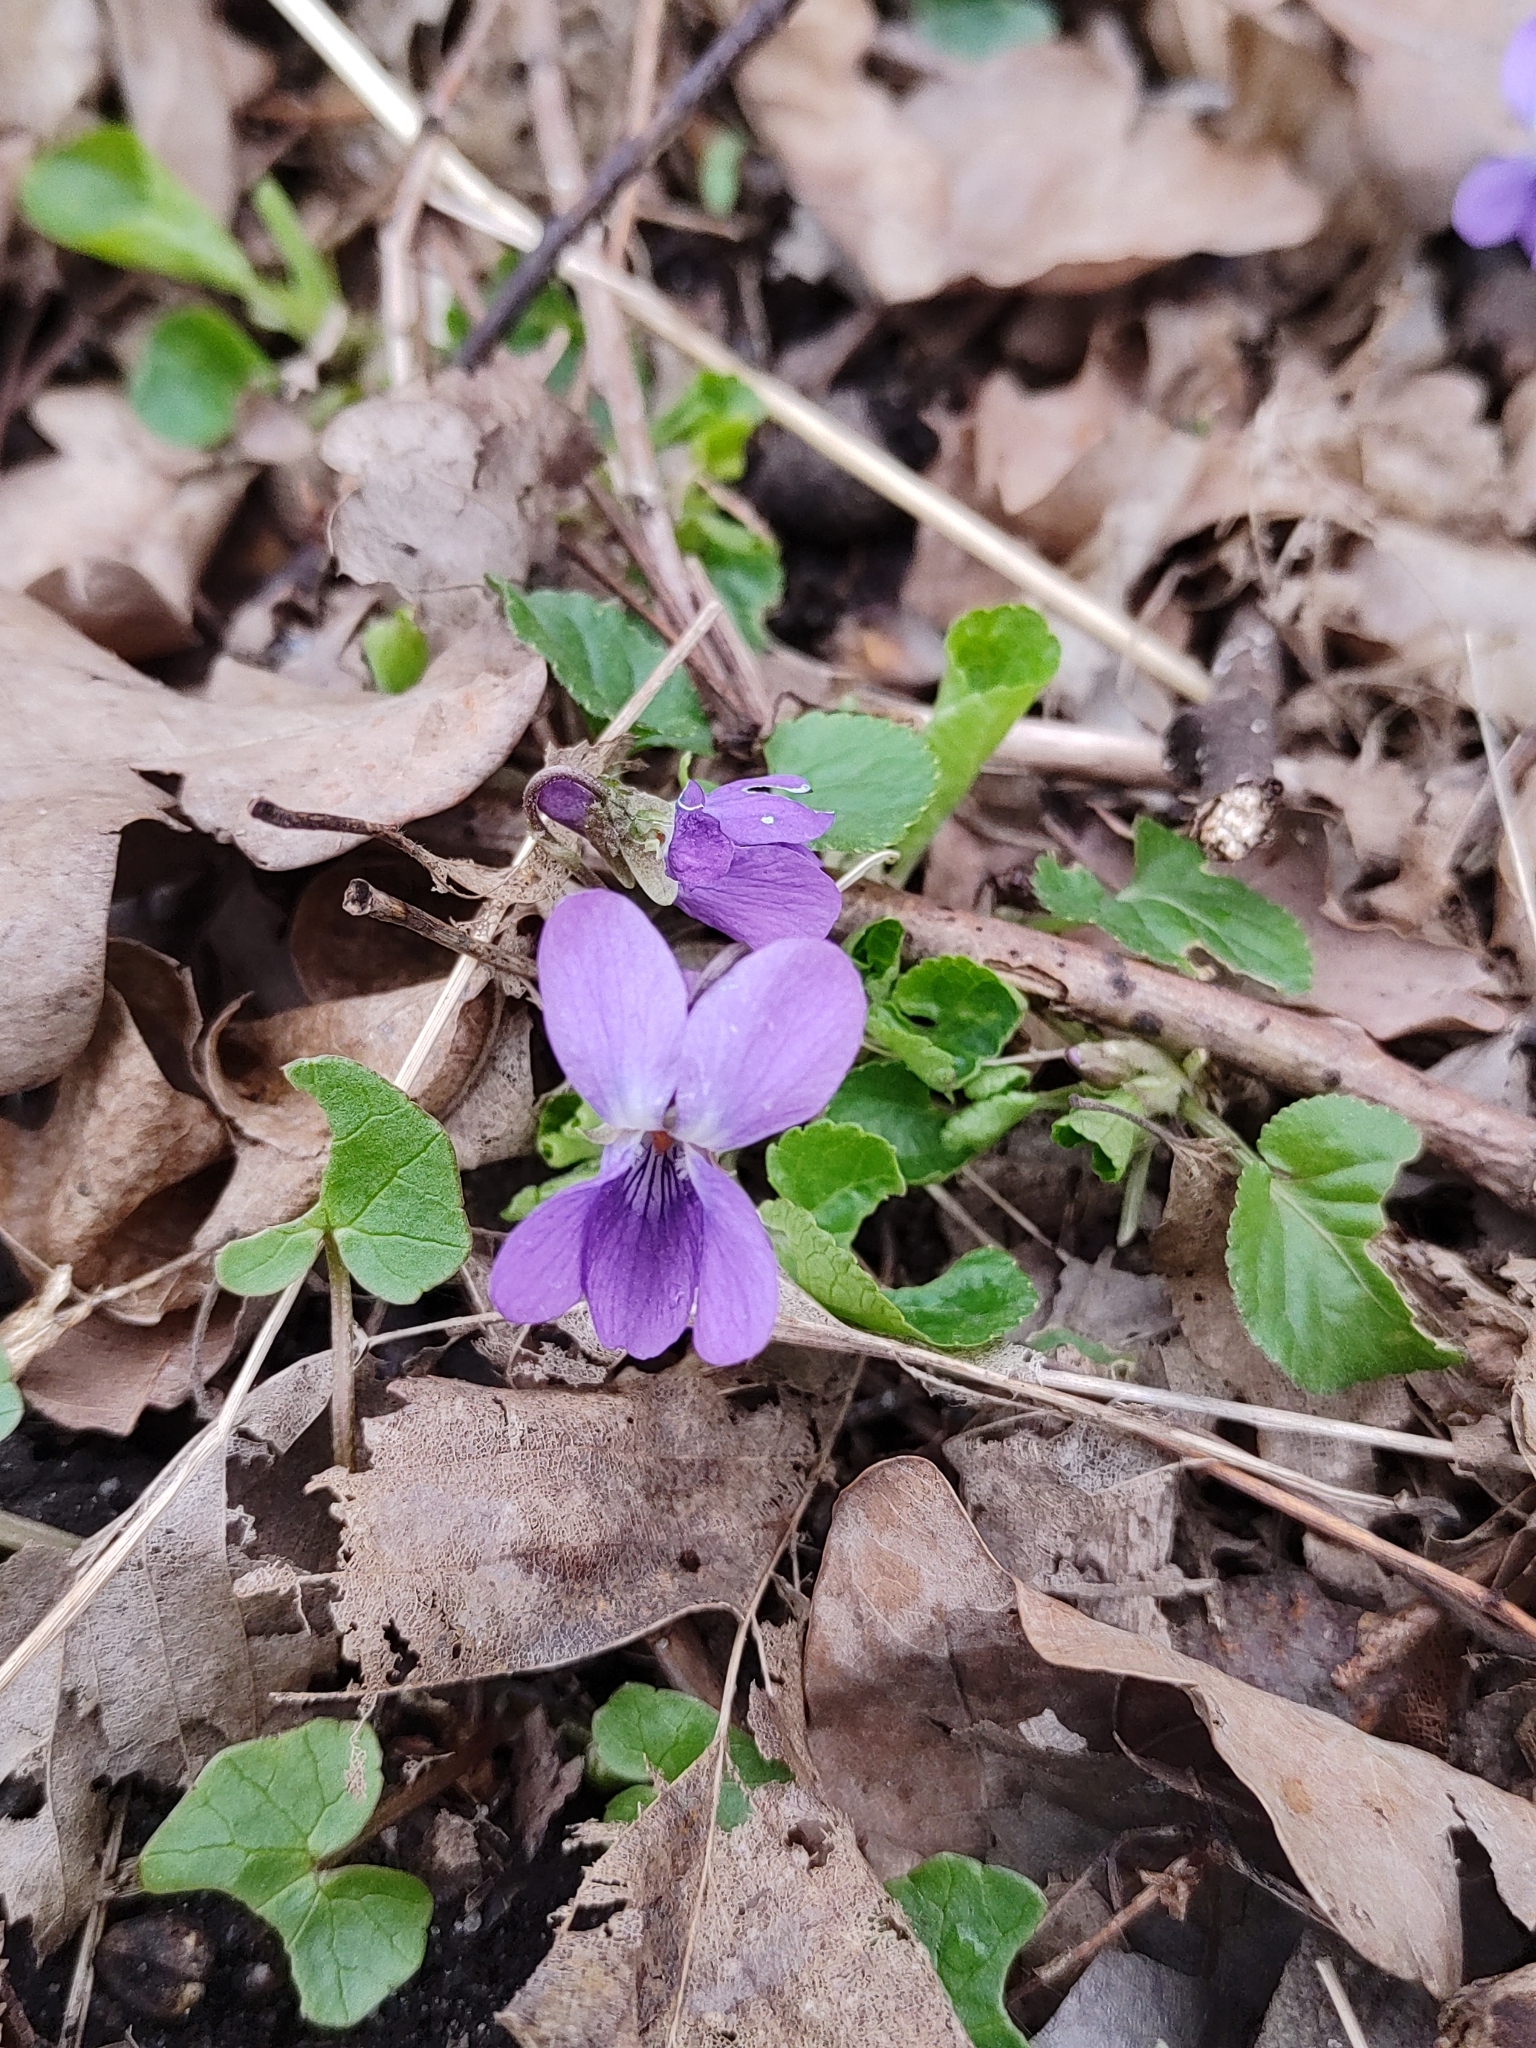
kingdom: Plantae
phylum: Tracheophyta
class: Magnoliopsida
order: Malpighiales
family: Violaceae
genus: Viola
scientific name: Viola odorata
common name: Sweet violet
